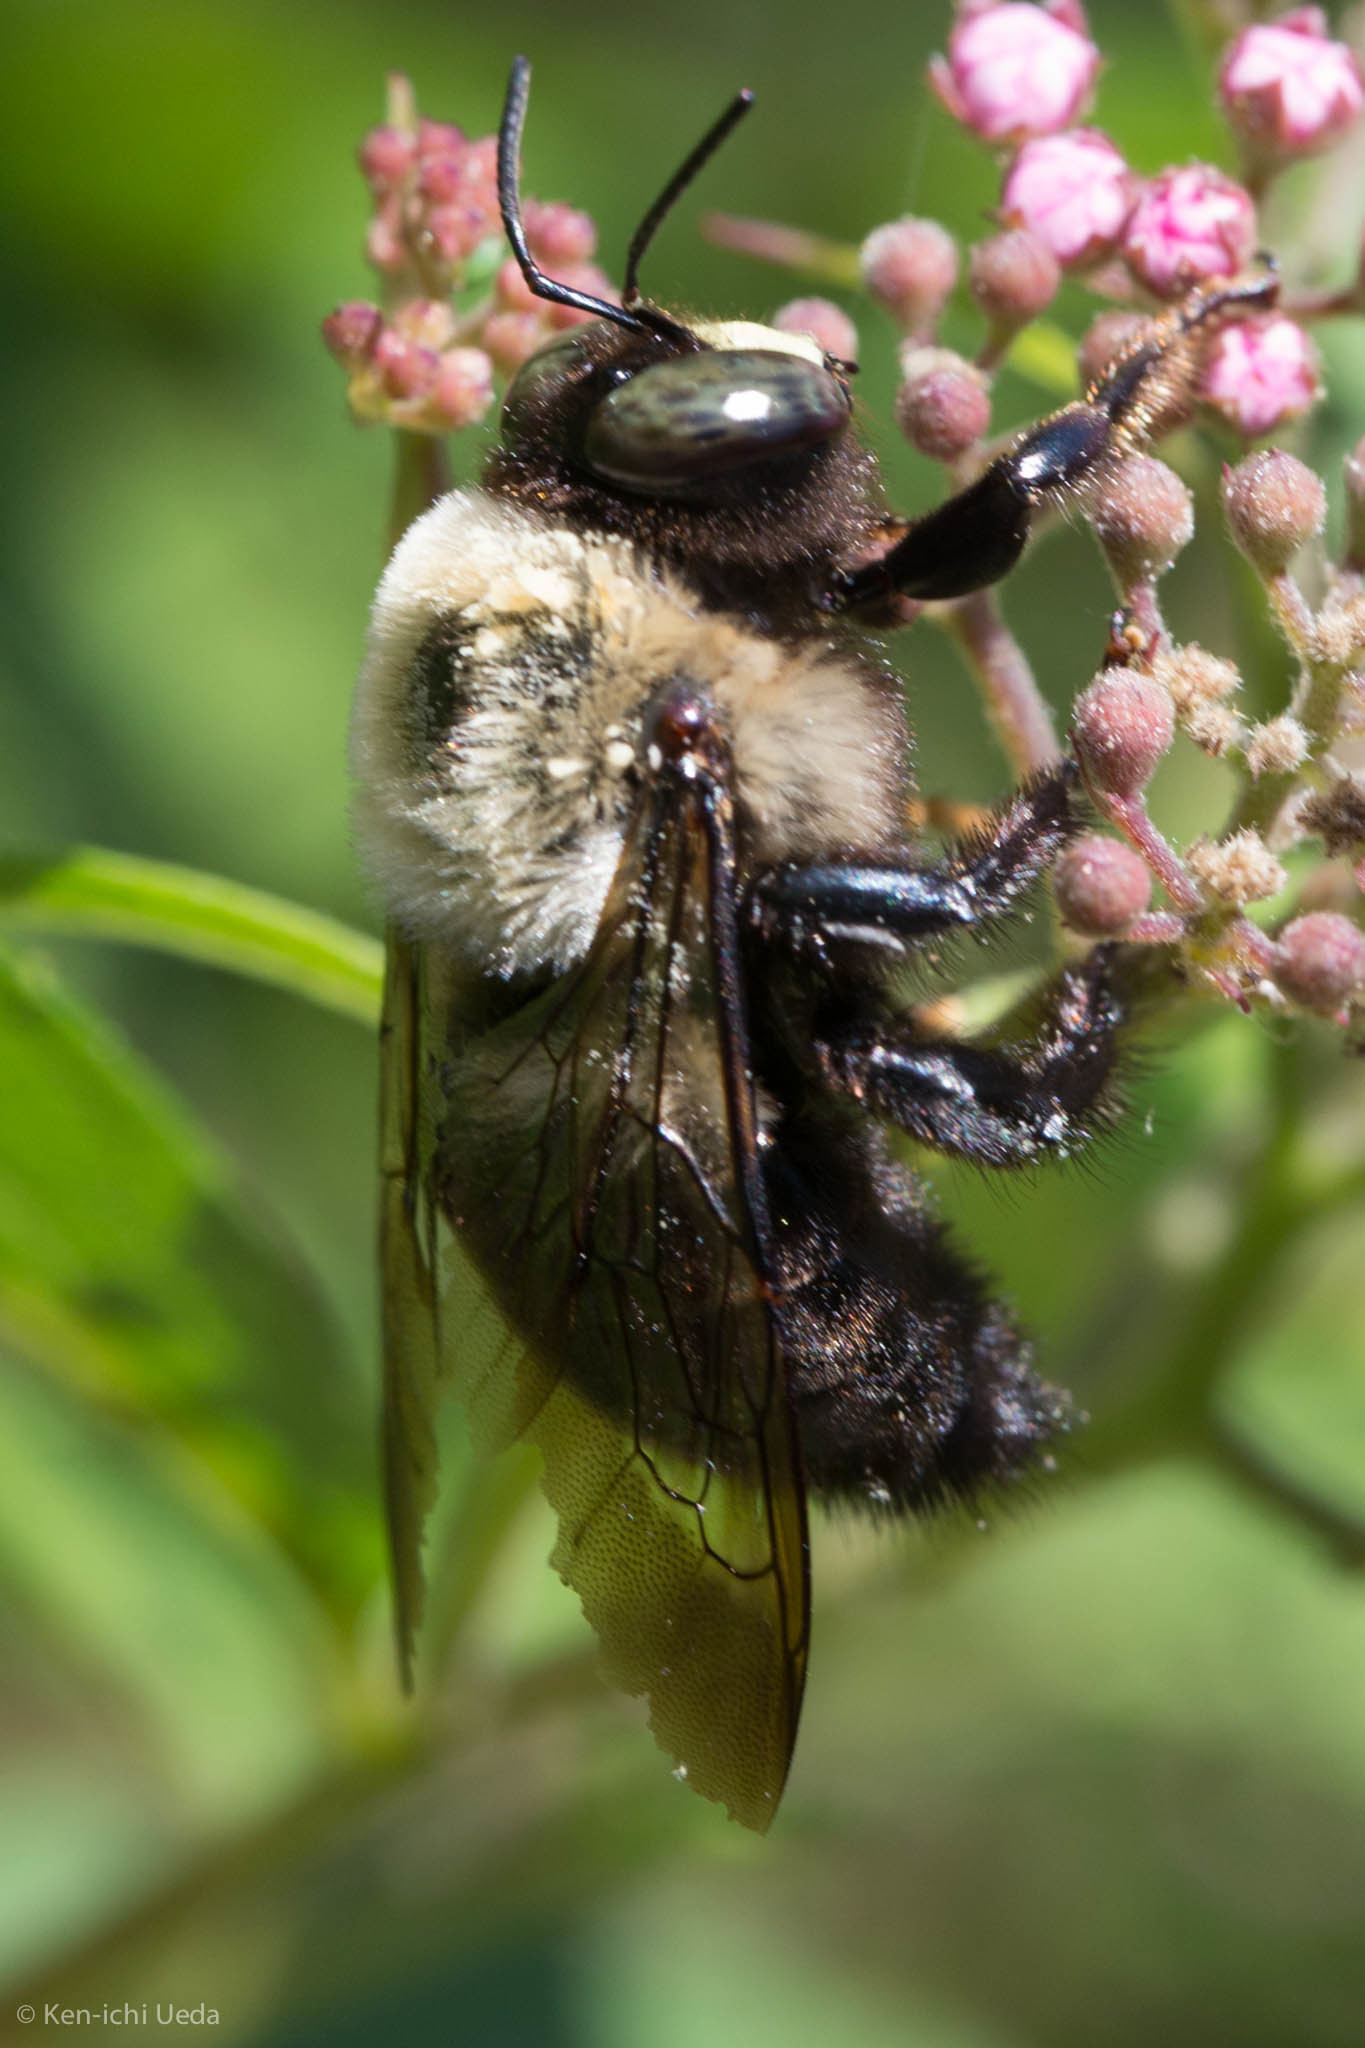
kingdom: Animalia
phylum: Arthropoda
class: Insecta
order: Hymenoptera
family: Apidae
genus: Xylocopa
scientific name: Xylocopa virginica
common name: Carpenter bee
